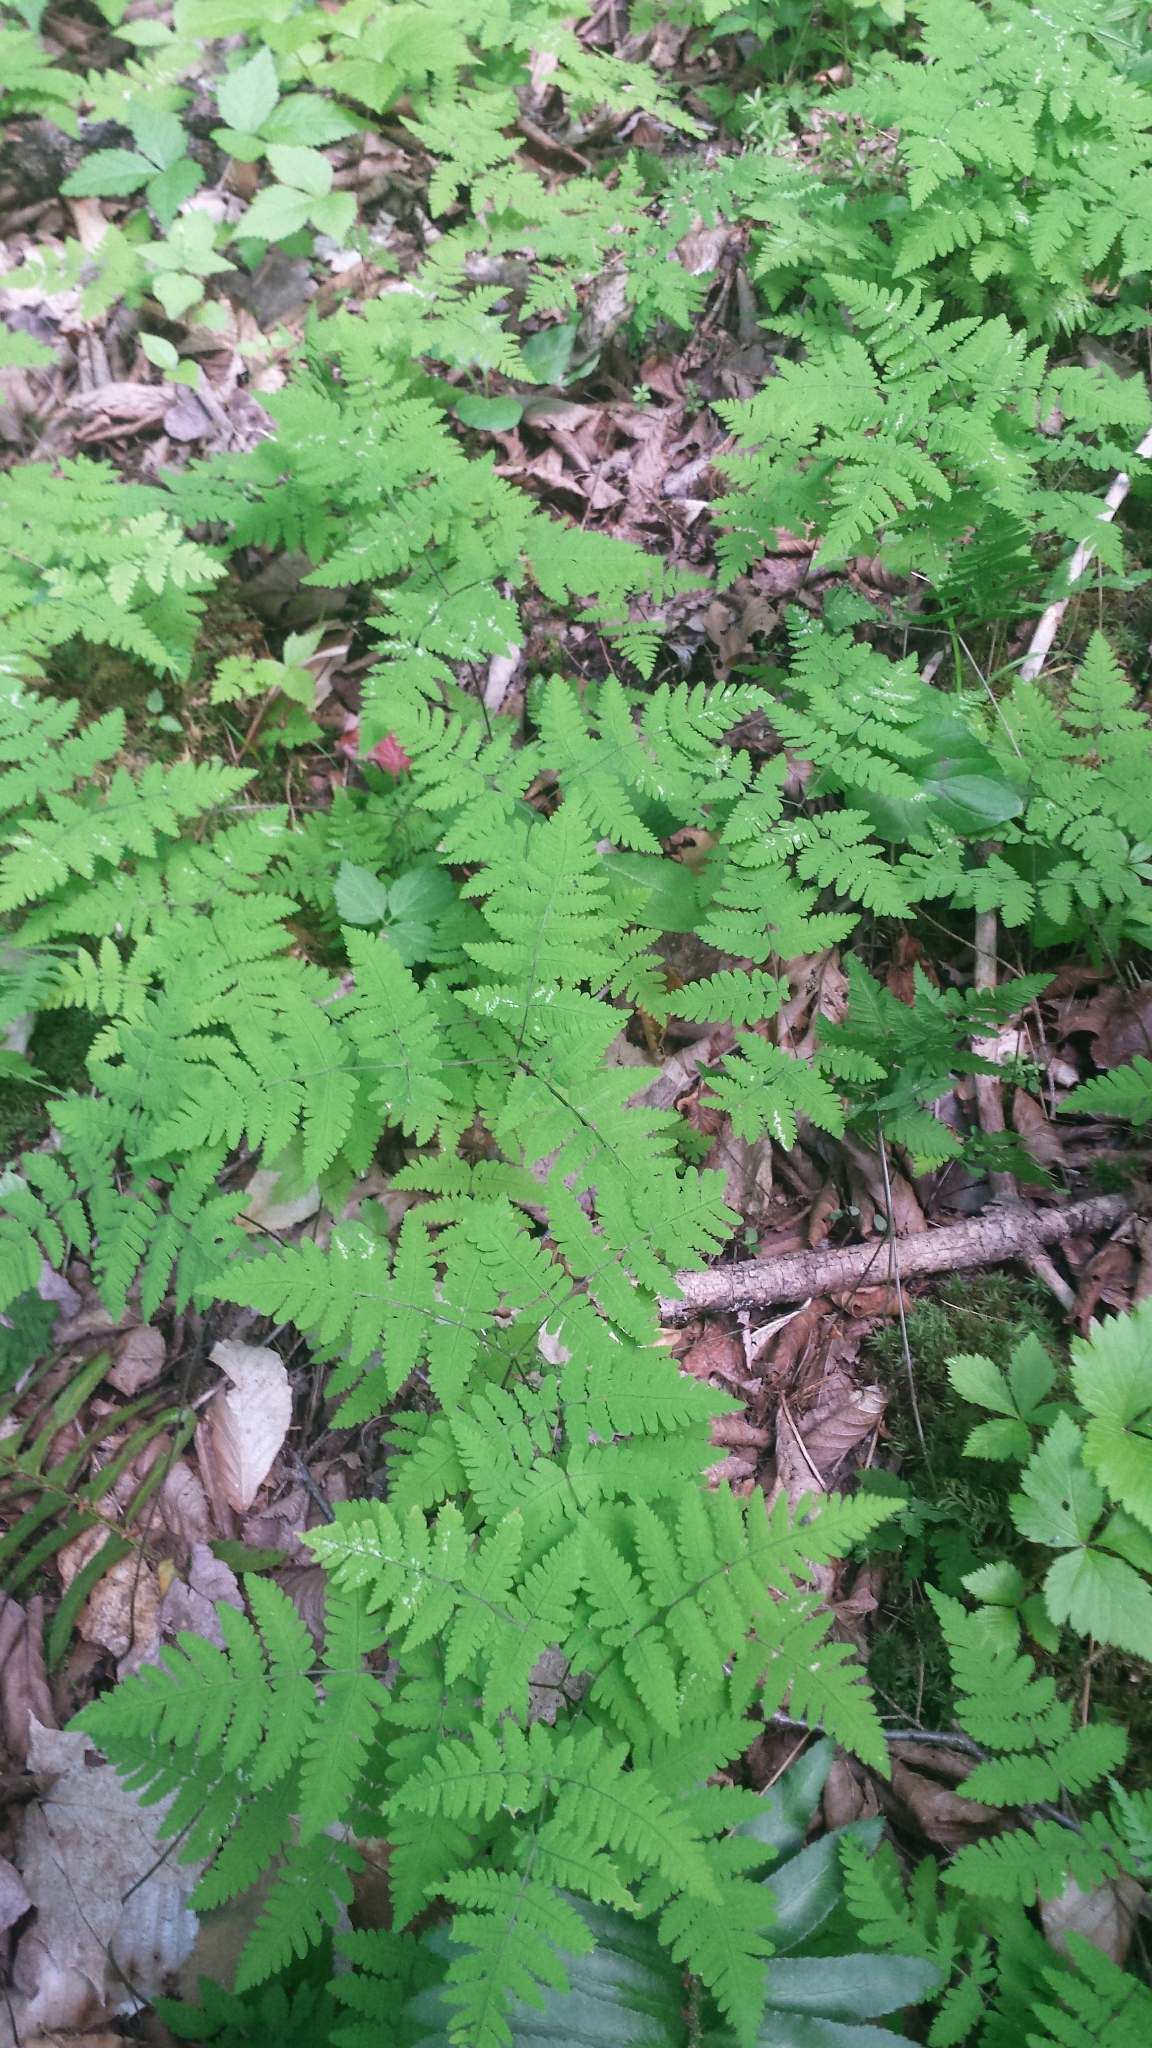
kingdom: Plantae
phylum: Tracheophyta
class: Polypodiopsida
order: Polypodiales
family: Cystopteridaceae
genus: Gymnocarpium
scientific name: Gymnocarpium dryopteris
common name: Oak fern
